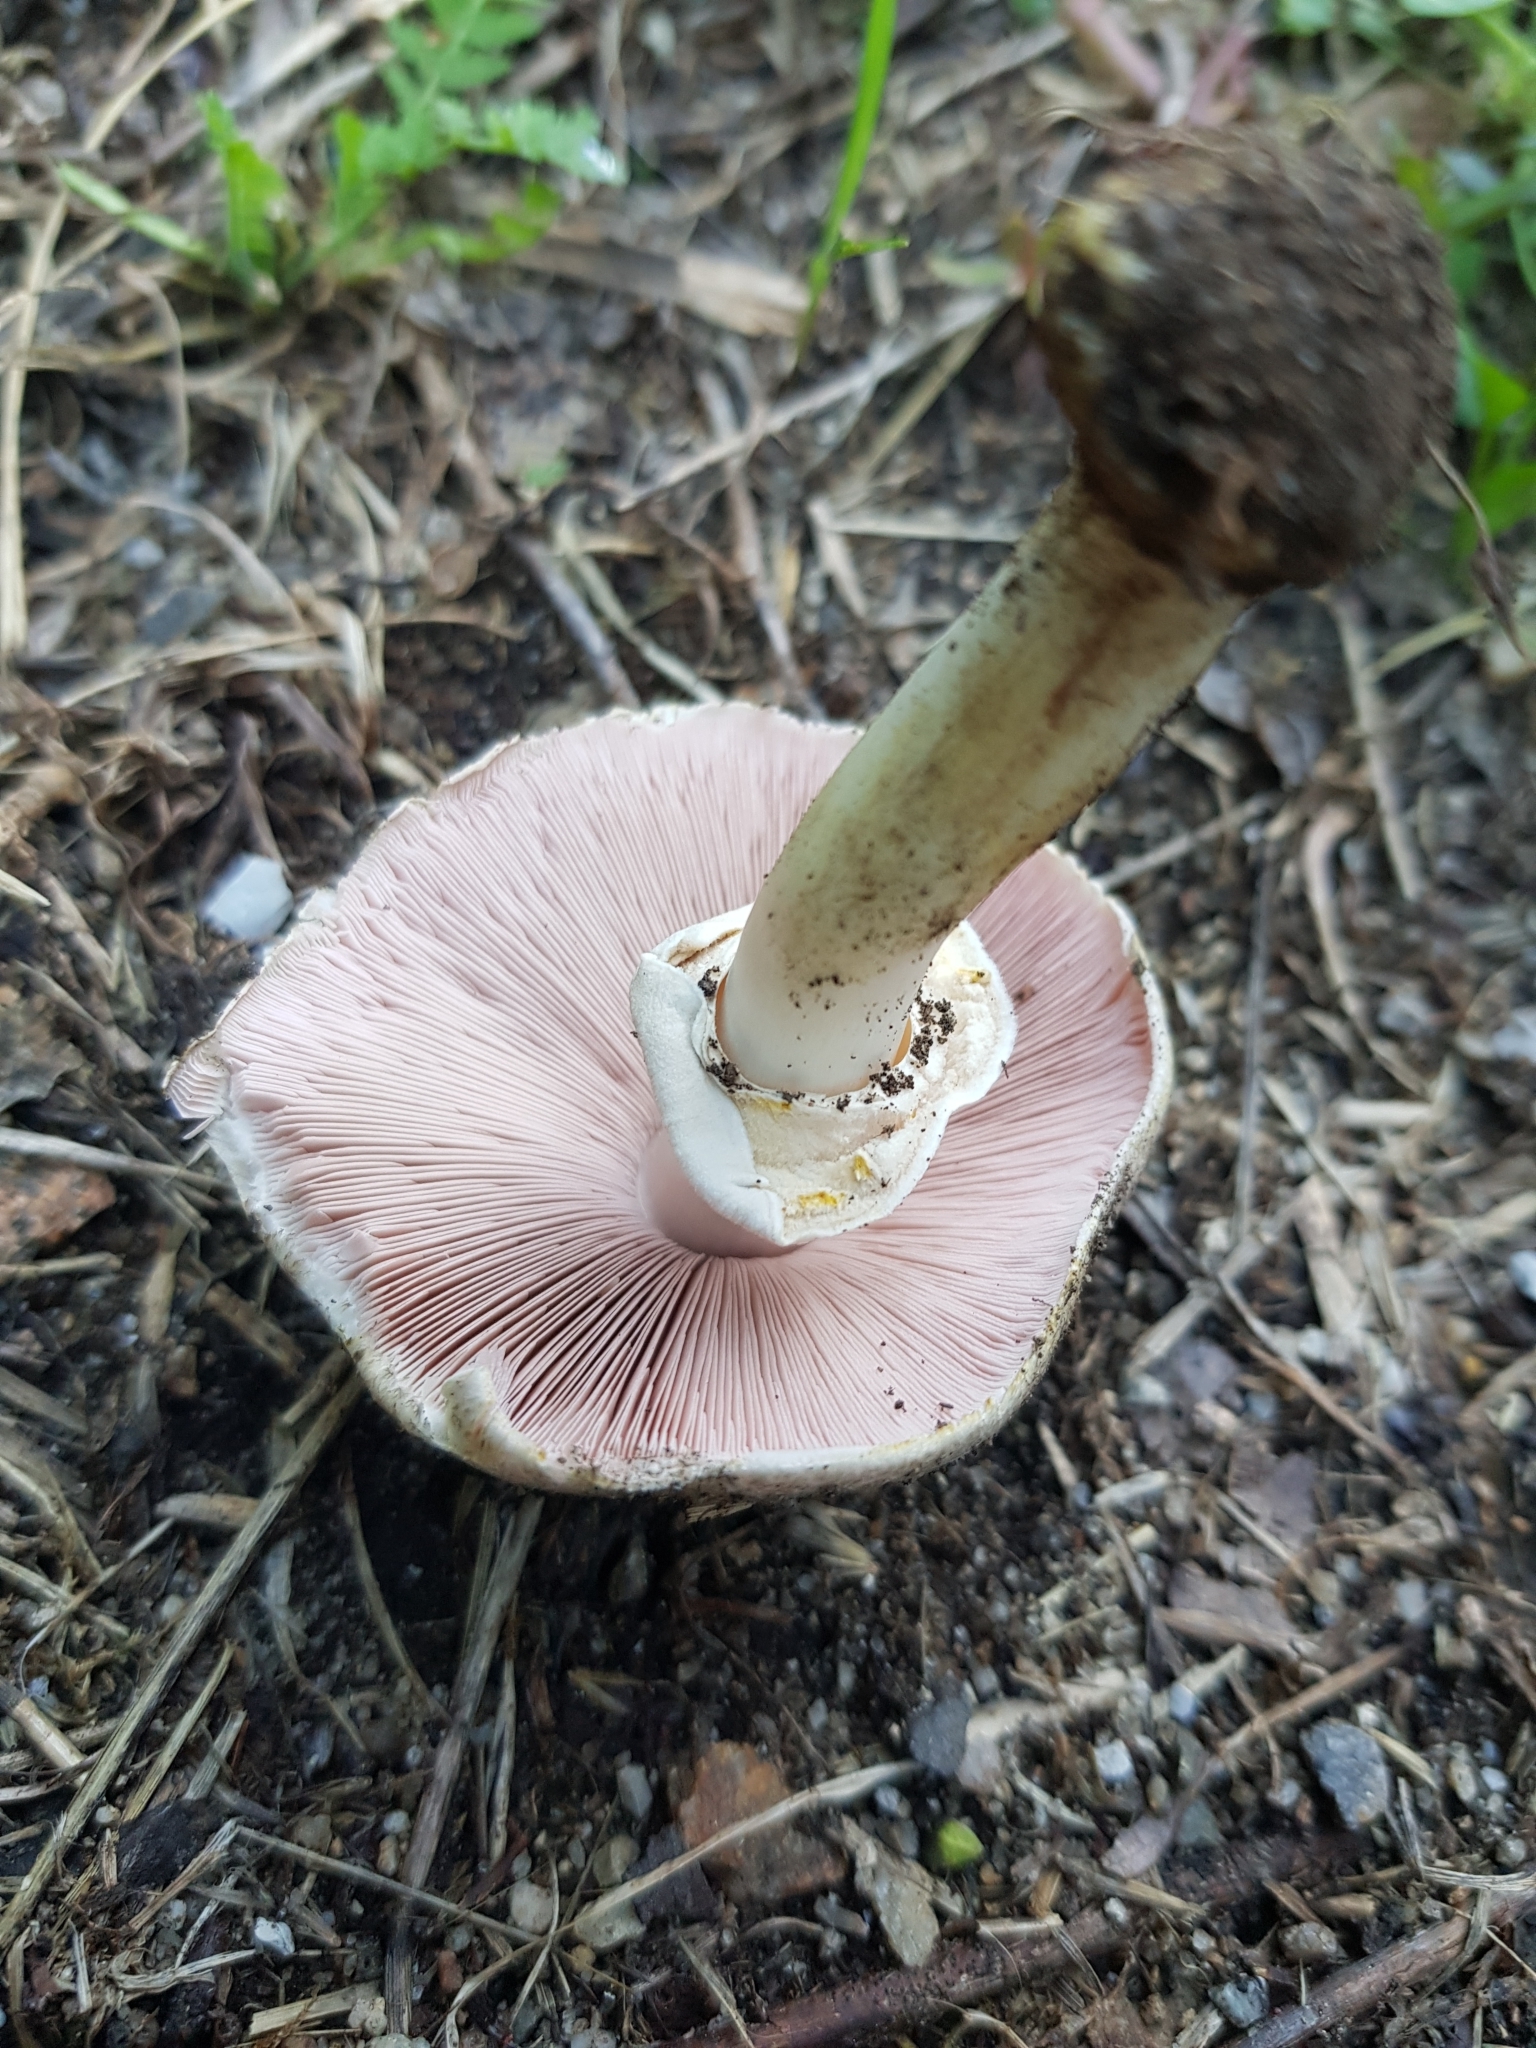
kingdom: Fungi
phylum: Basidiomycota
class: Agaricomycetes
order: Agaricales
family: Agaricaceae
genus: Agaricus
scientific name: Agaricus moelleri
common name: Inky mushroom
